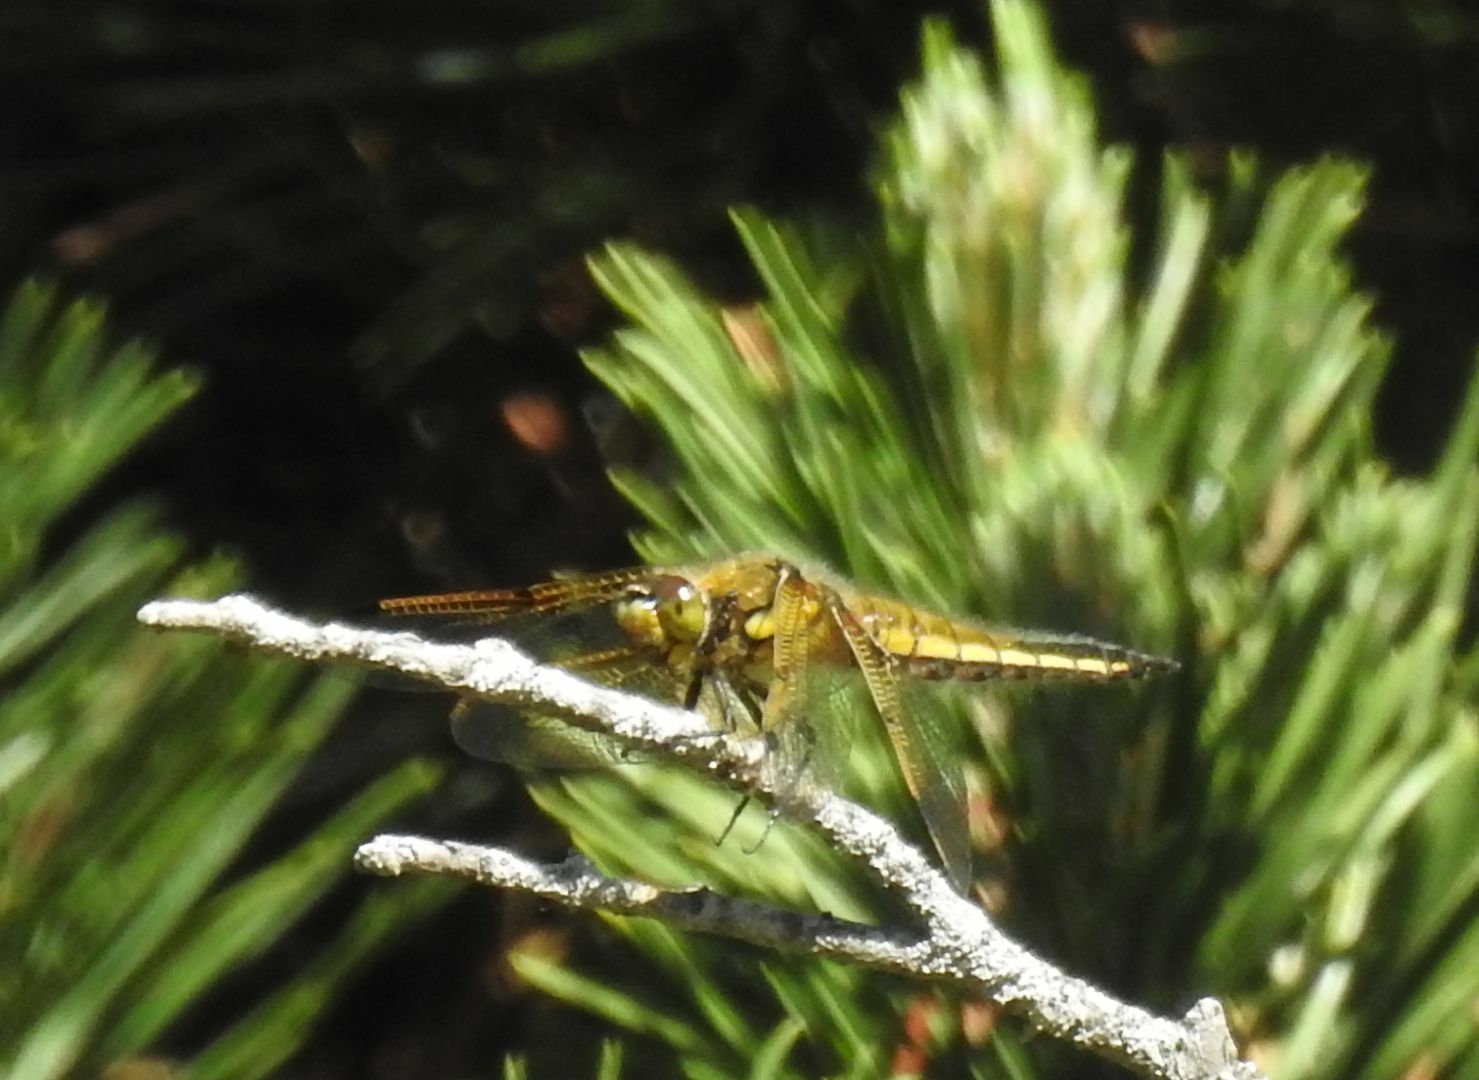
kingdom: Animalia
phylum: Arthropoda
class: Insecta
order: Odonata
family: Libellulidae
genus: Libellula
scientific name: Libellula quadrimaculata
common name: Four-spotted chaser
